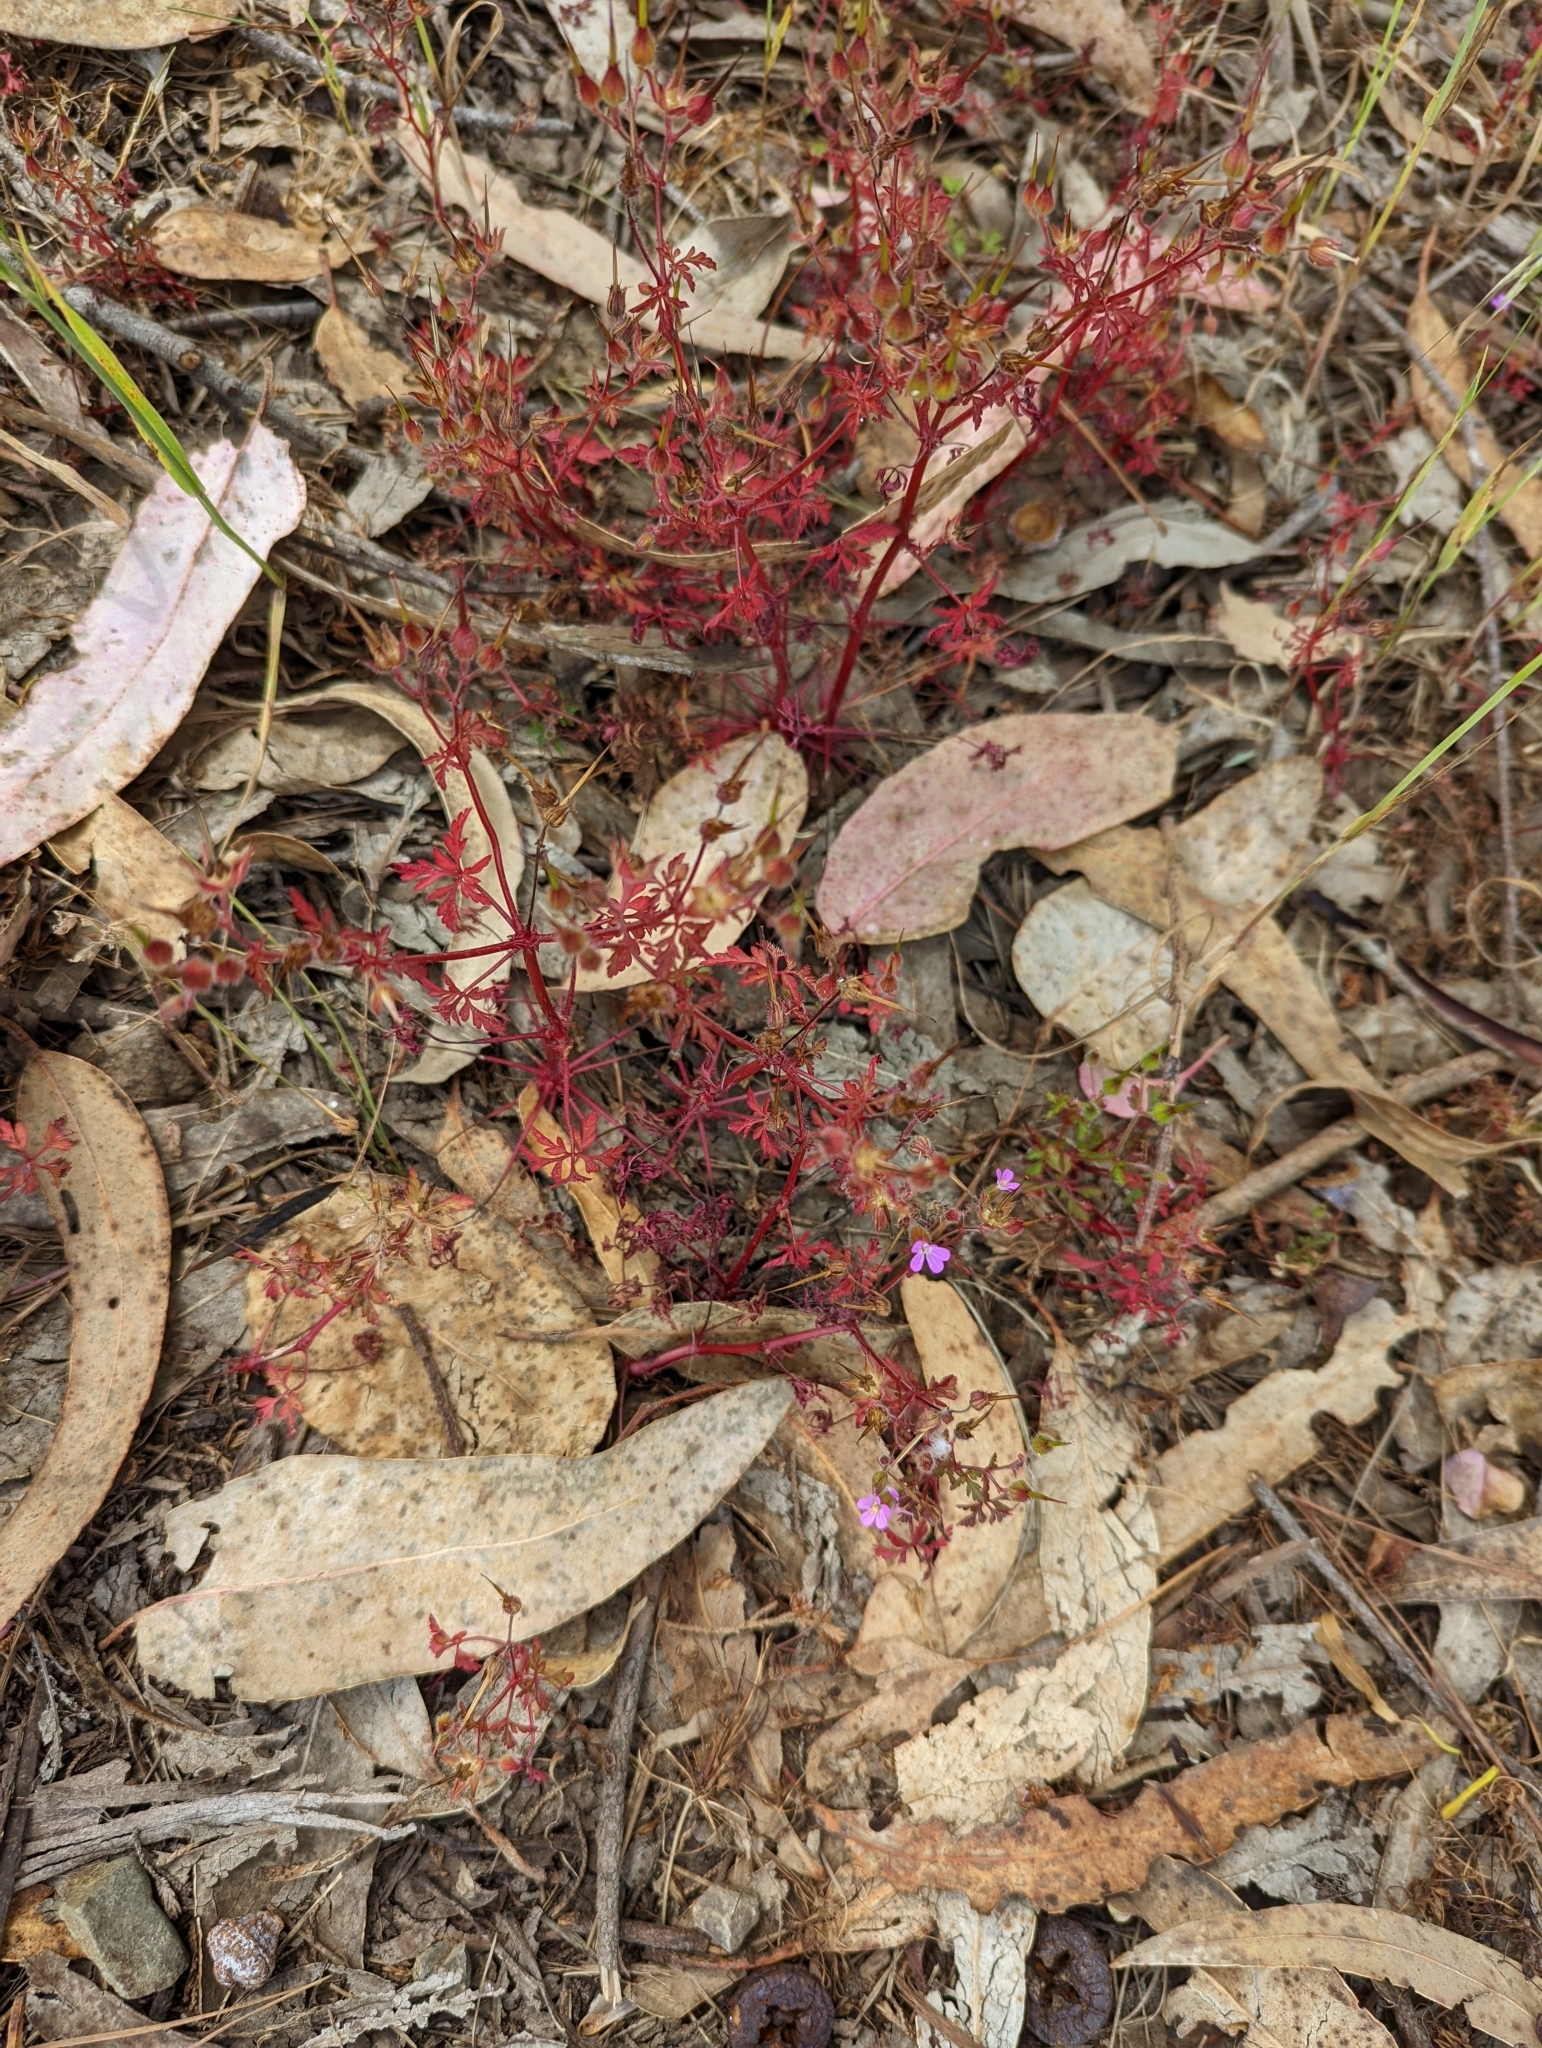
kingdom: Plantae
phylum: Tracheophyta
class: Magnoliopsida
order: Geraniales
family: Geraniaceae
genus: Geranium
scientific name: Geranium purpureum
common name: Little-robin
